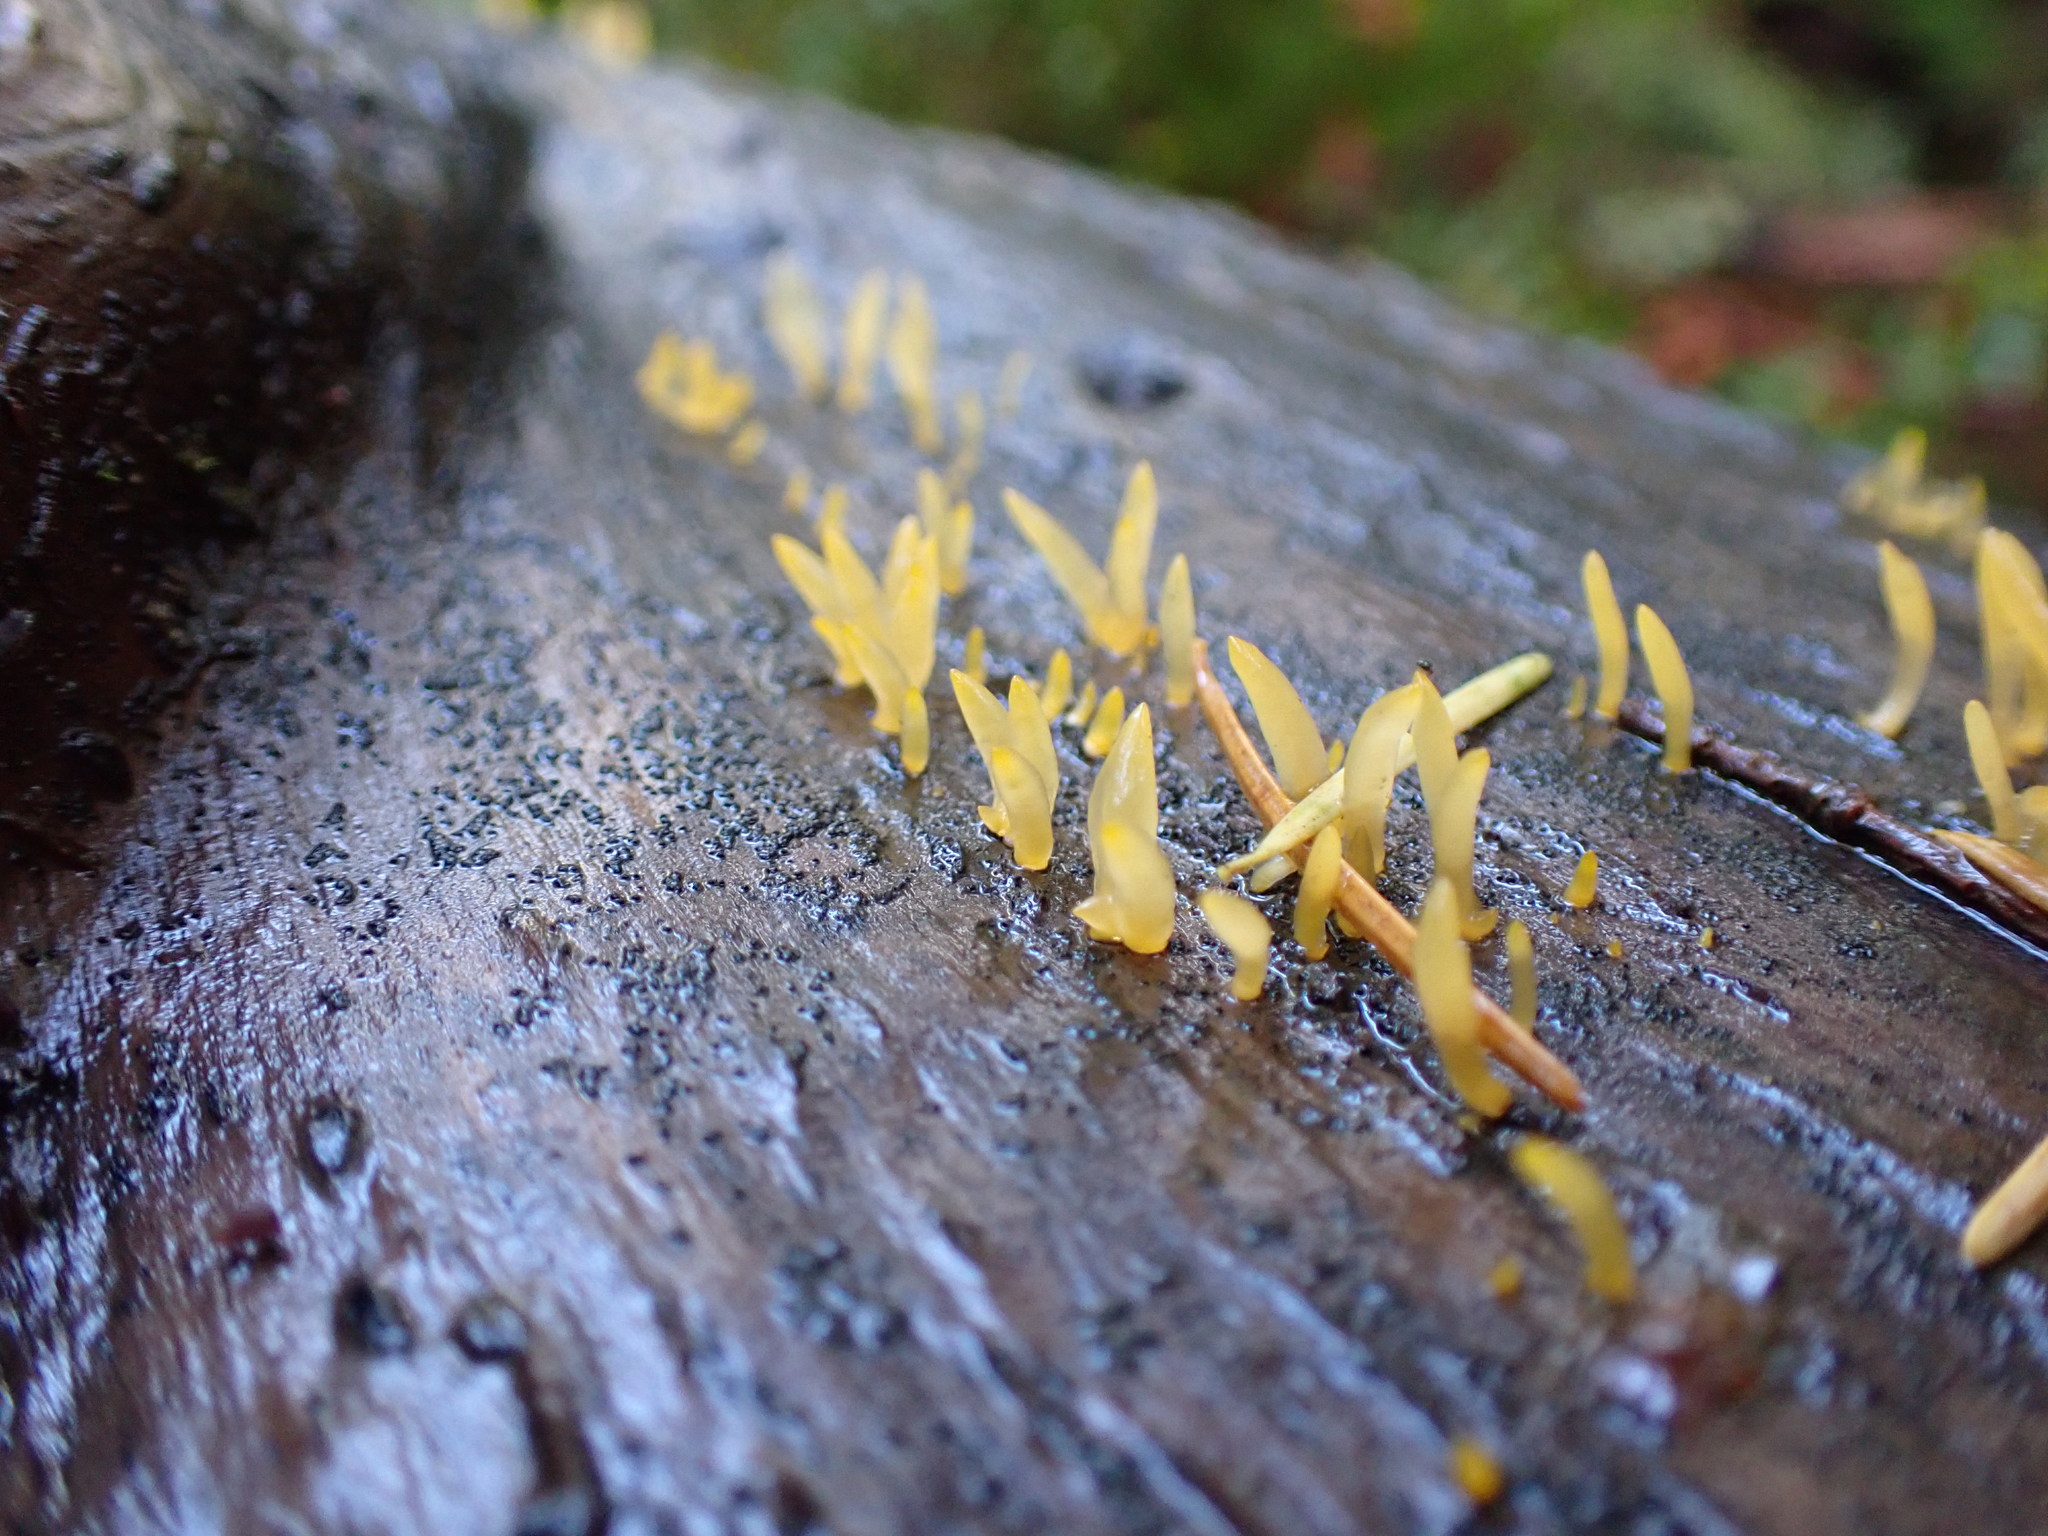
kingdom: Fungi
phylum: Basidiomycota
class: Dacrymycetes
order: Dacrymycetales
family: Dacrymycetaceae
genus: Calocera
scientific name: Calocera cornea
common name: Small stagshorn
